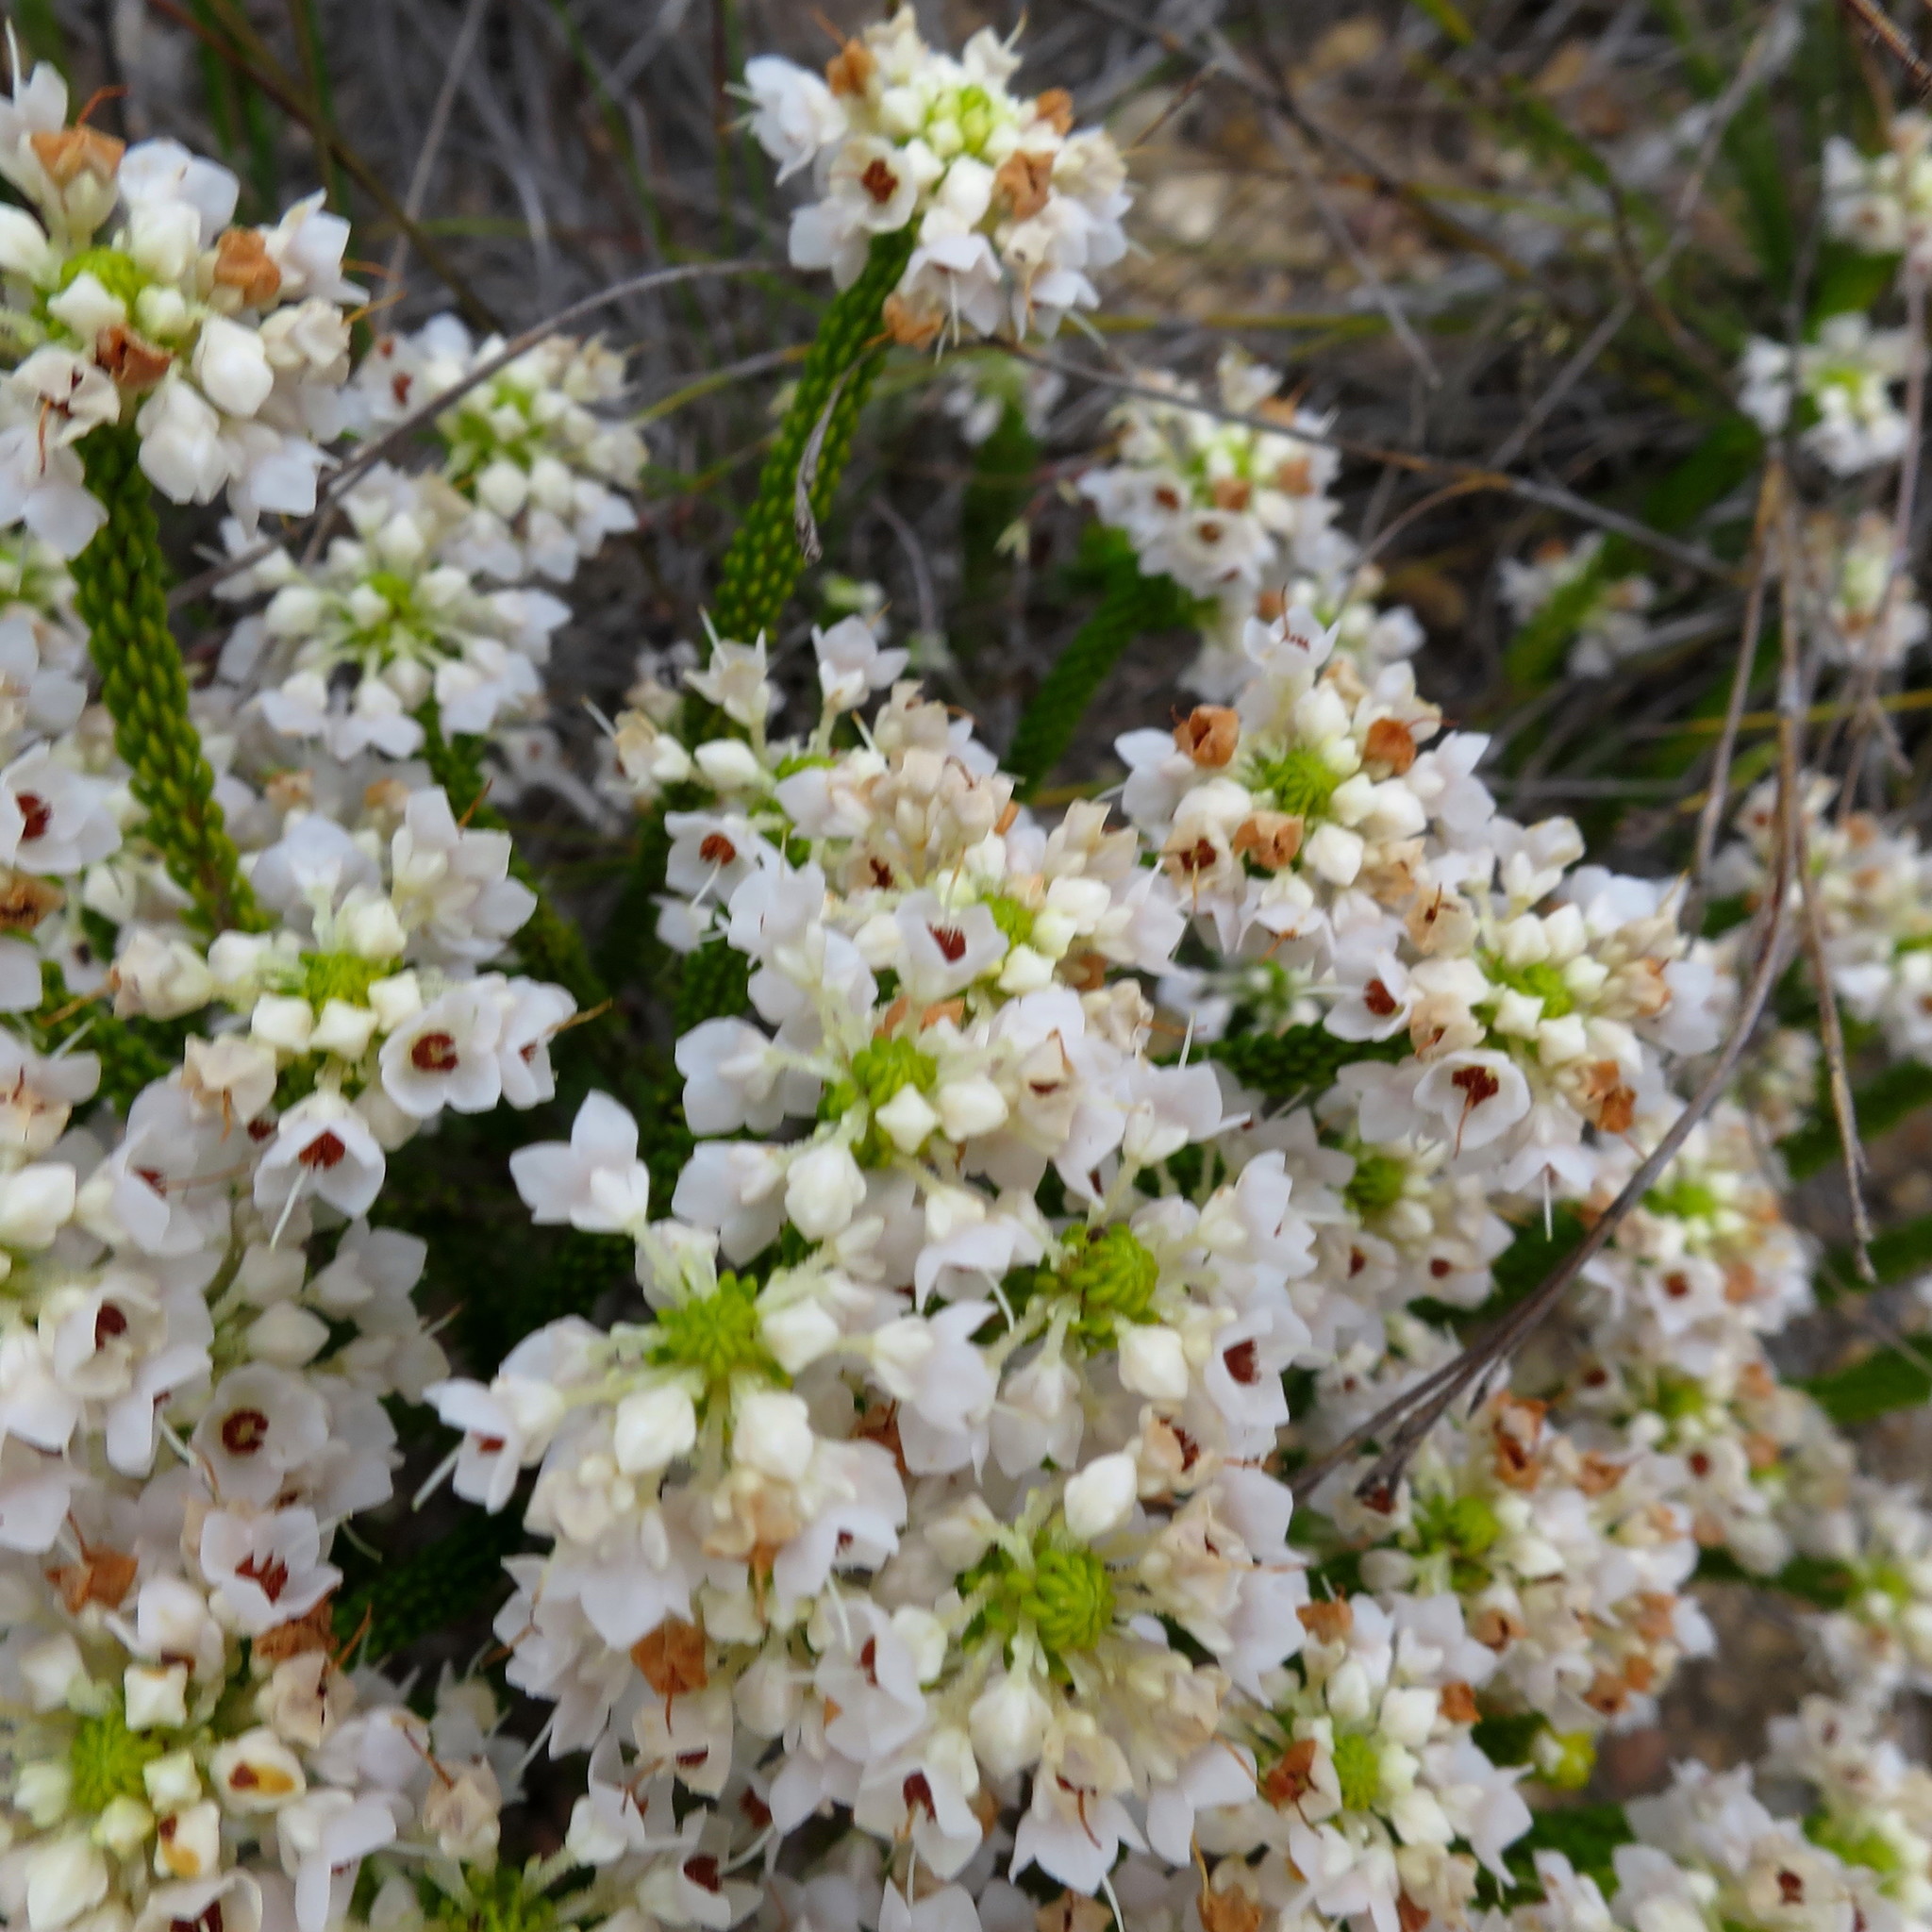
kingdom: Plantae
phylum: Tracheophyta
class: Magnoliopsida
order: Ericales
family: Ericaceae
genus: Erica
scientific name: Erica seriphiifolia
